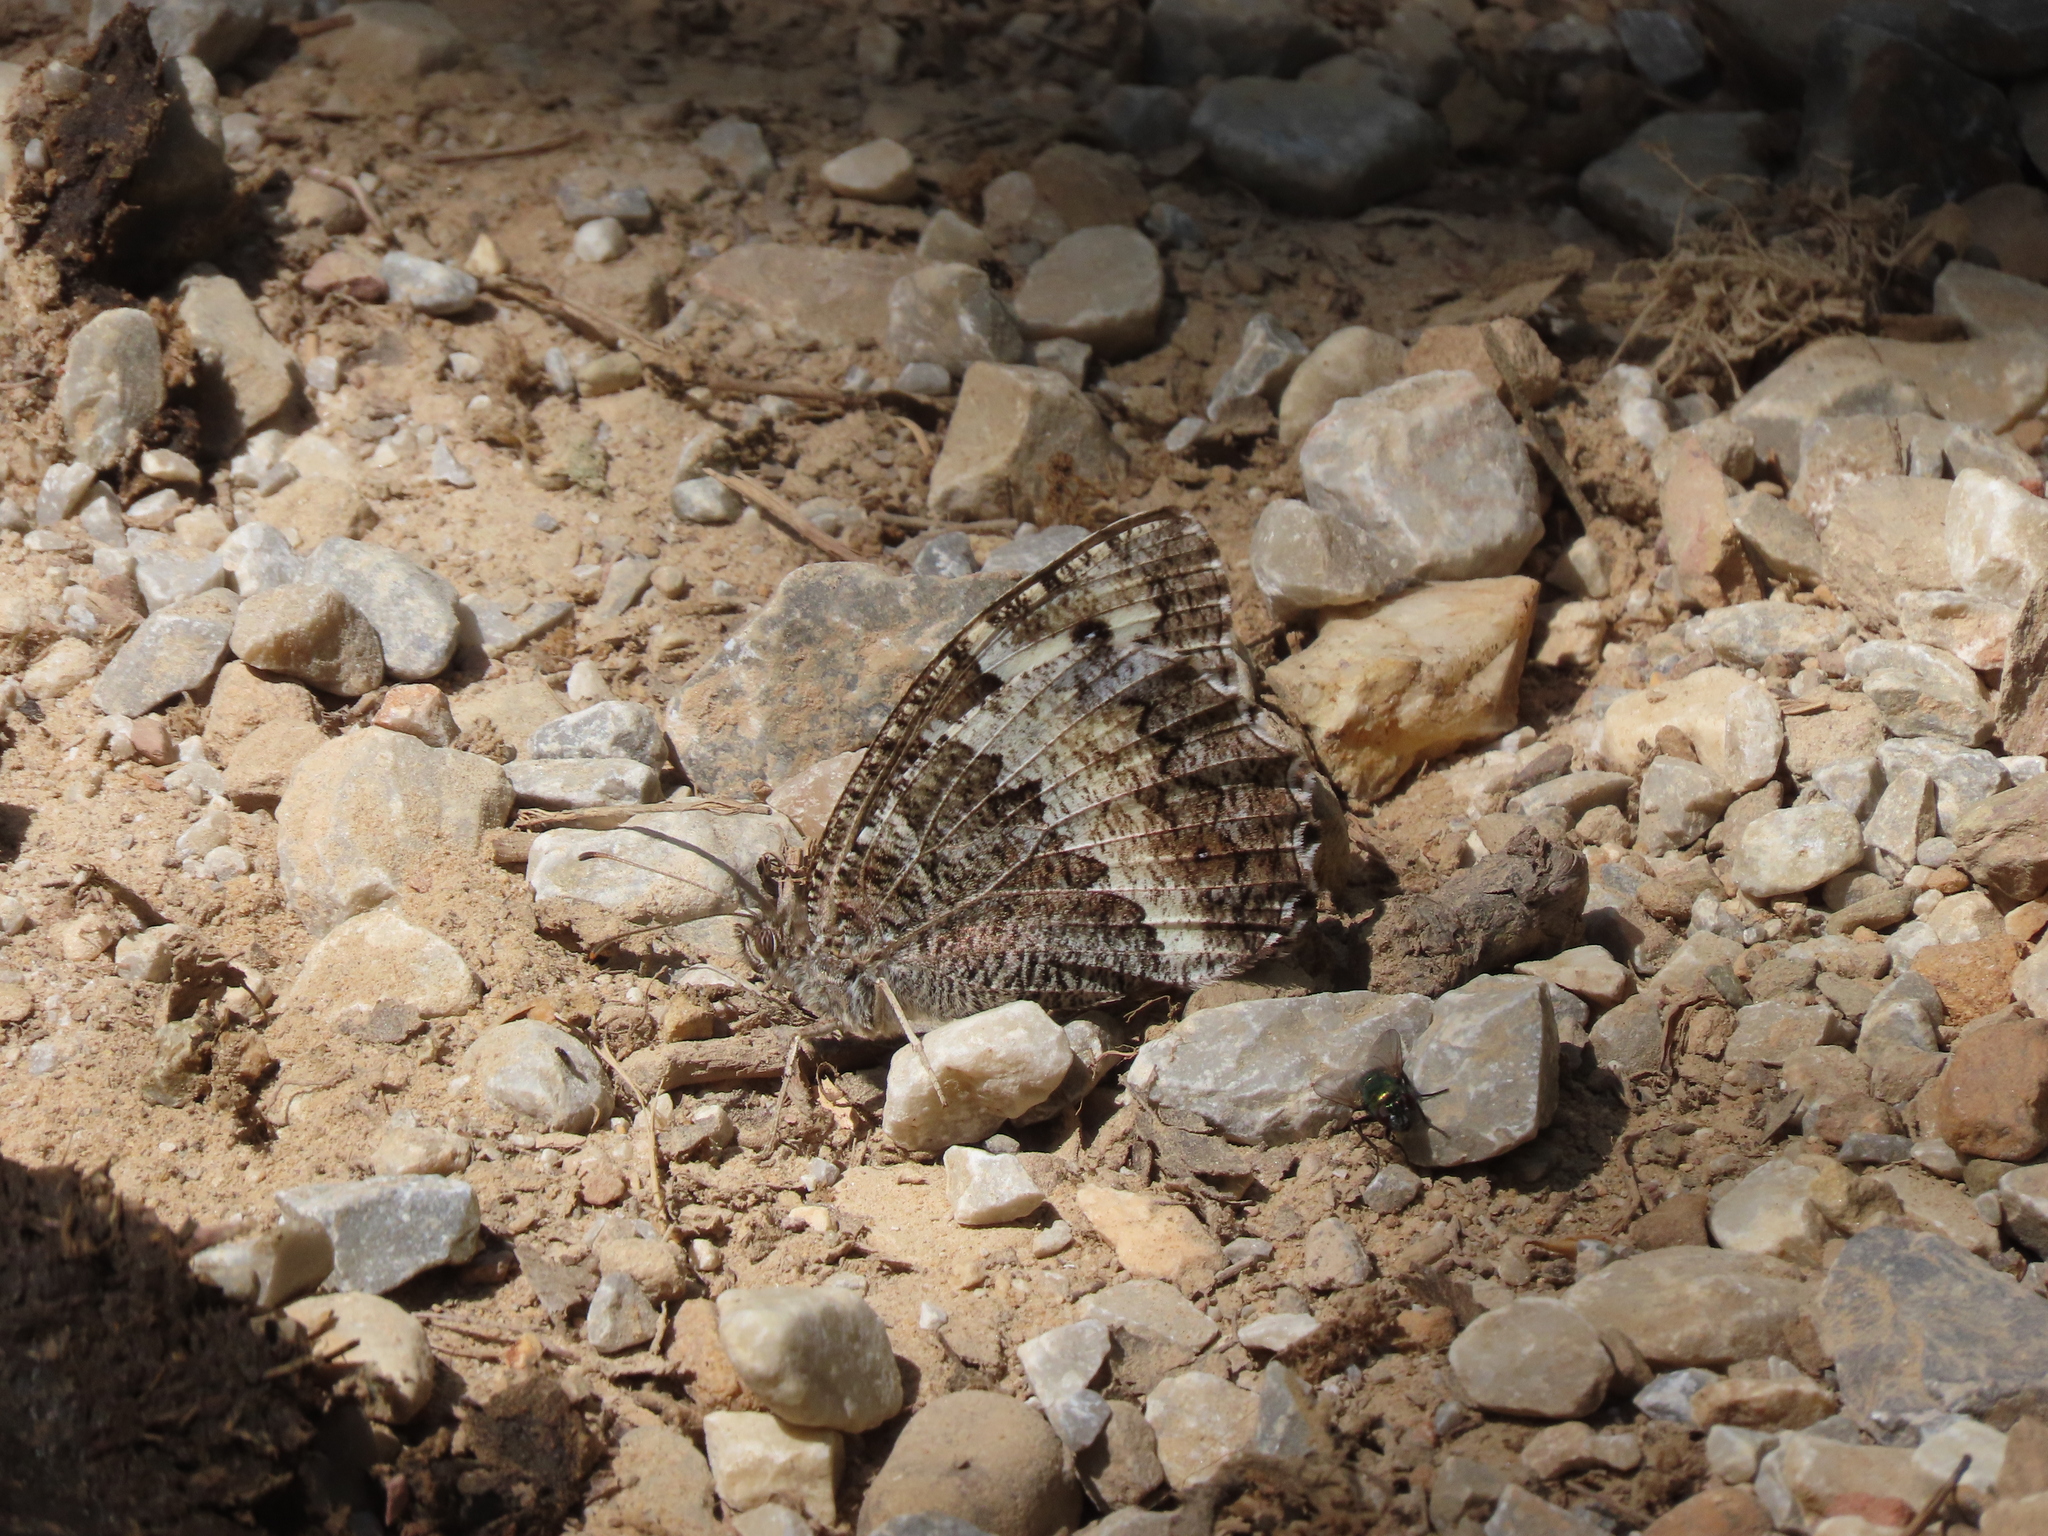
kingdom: Animalia
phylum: Arthropoda
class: Insecta
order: Lepidoptera
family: Lycaenidae
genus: Loweia
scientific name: Loweia tityrus
